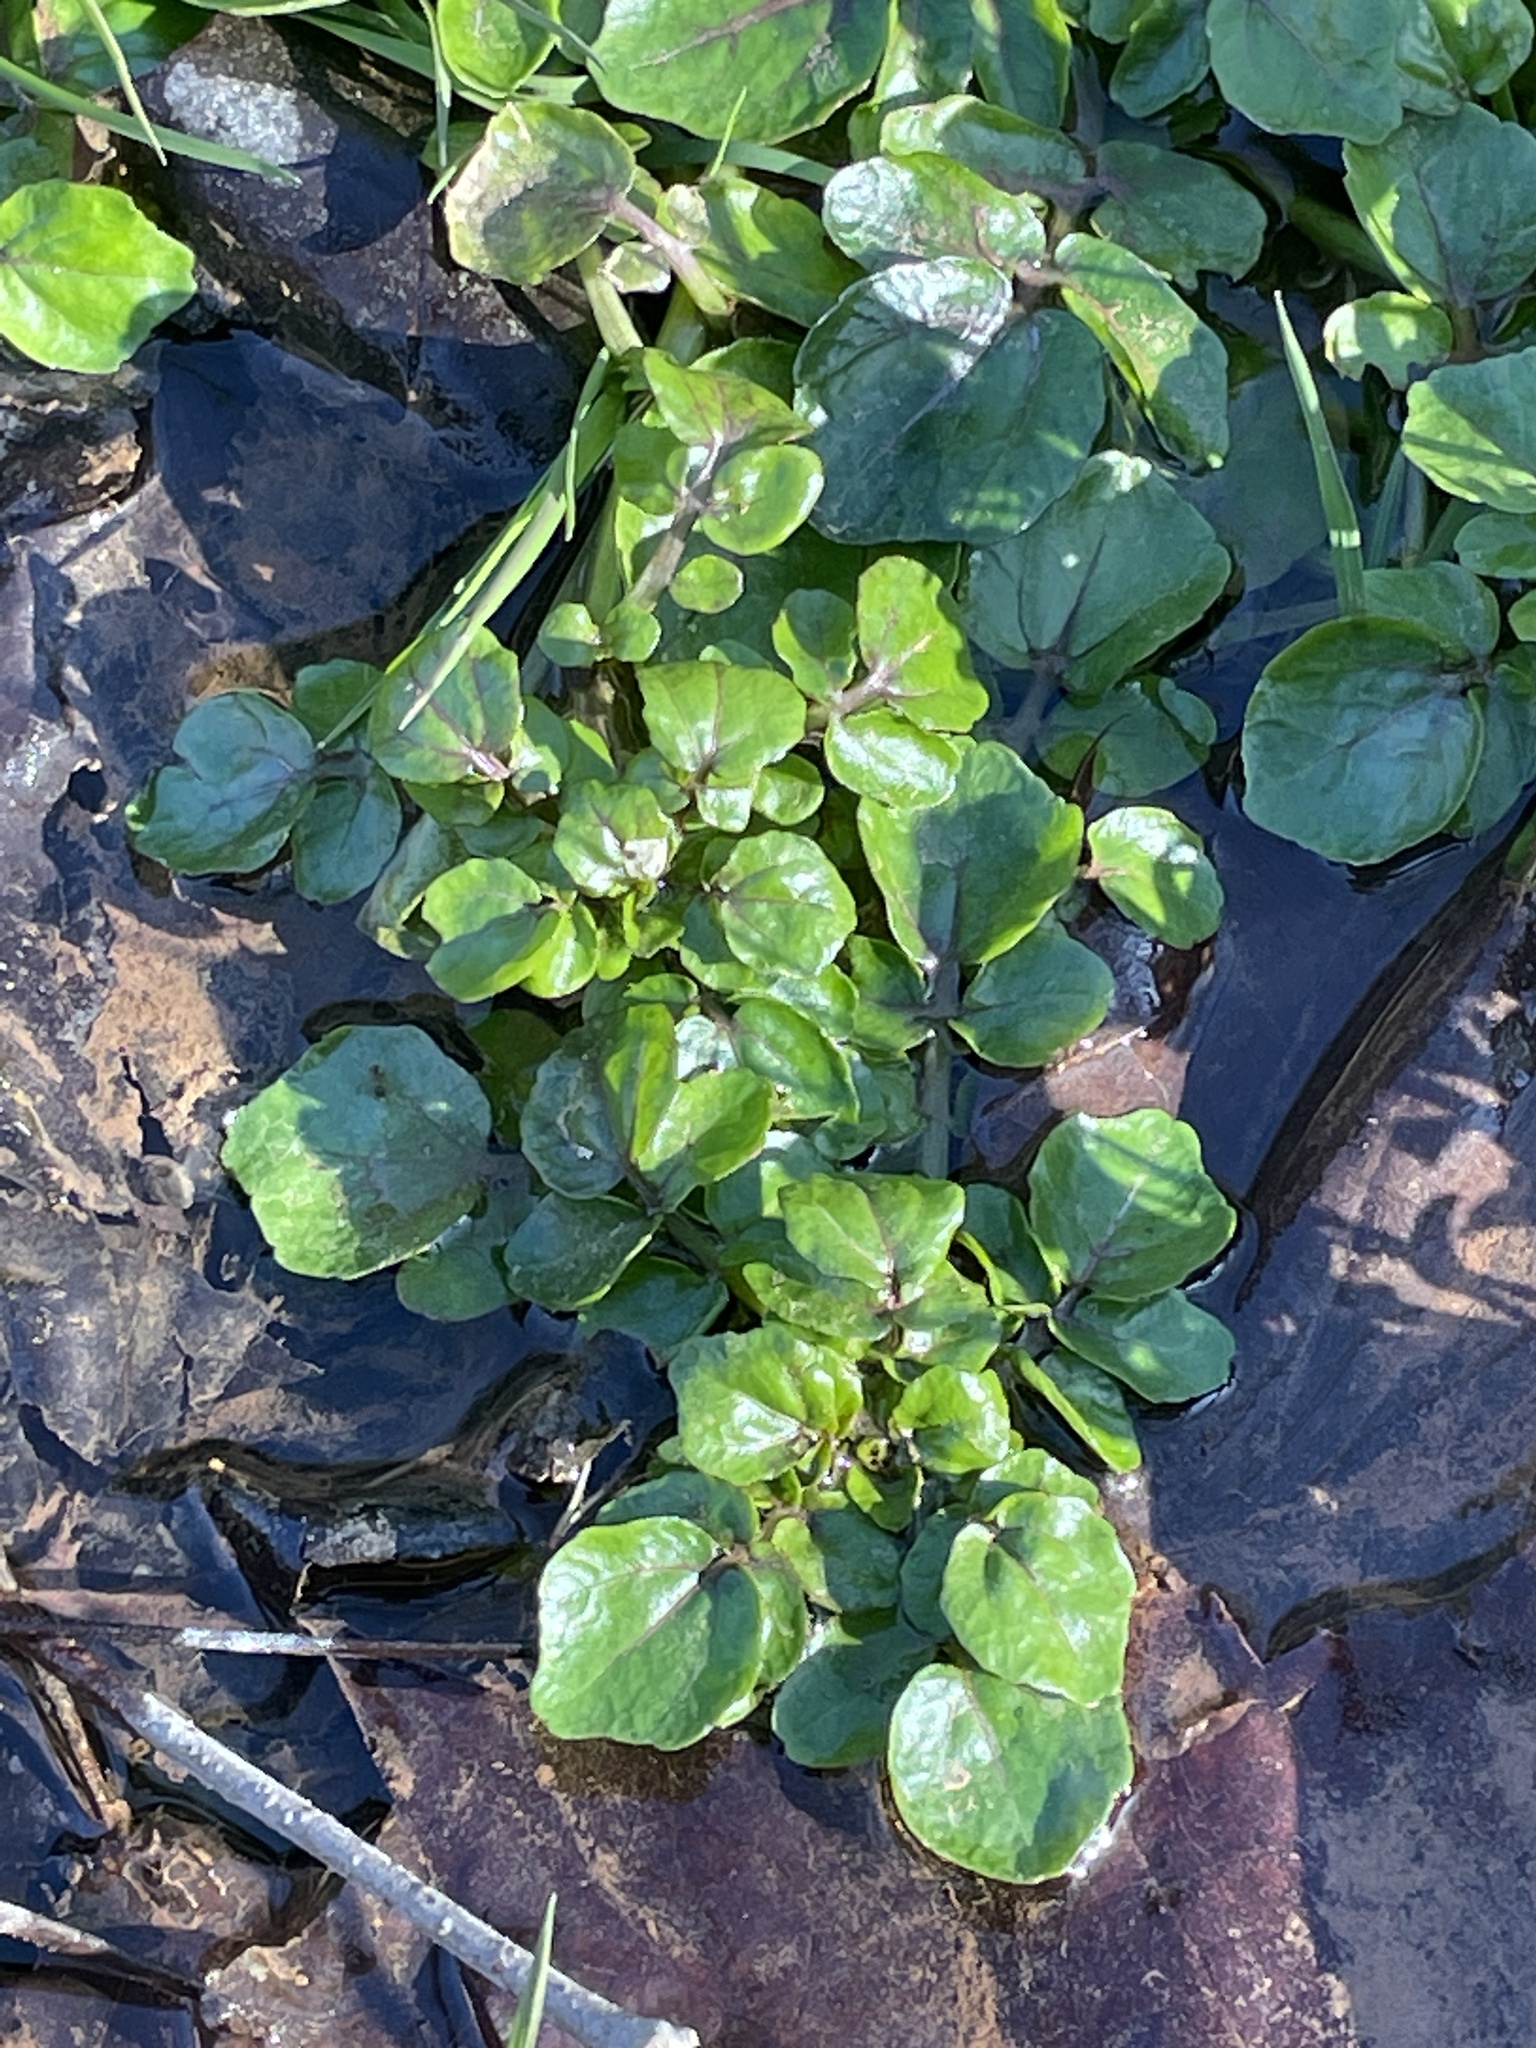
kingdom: Plantae
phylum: Tracheophyta
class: Magnoliopsida
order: Brassicales
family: Brassicaceae
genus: Nasturtium
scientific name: Nasturtium officinale
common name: Watercress
